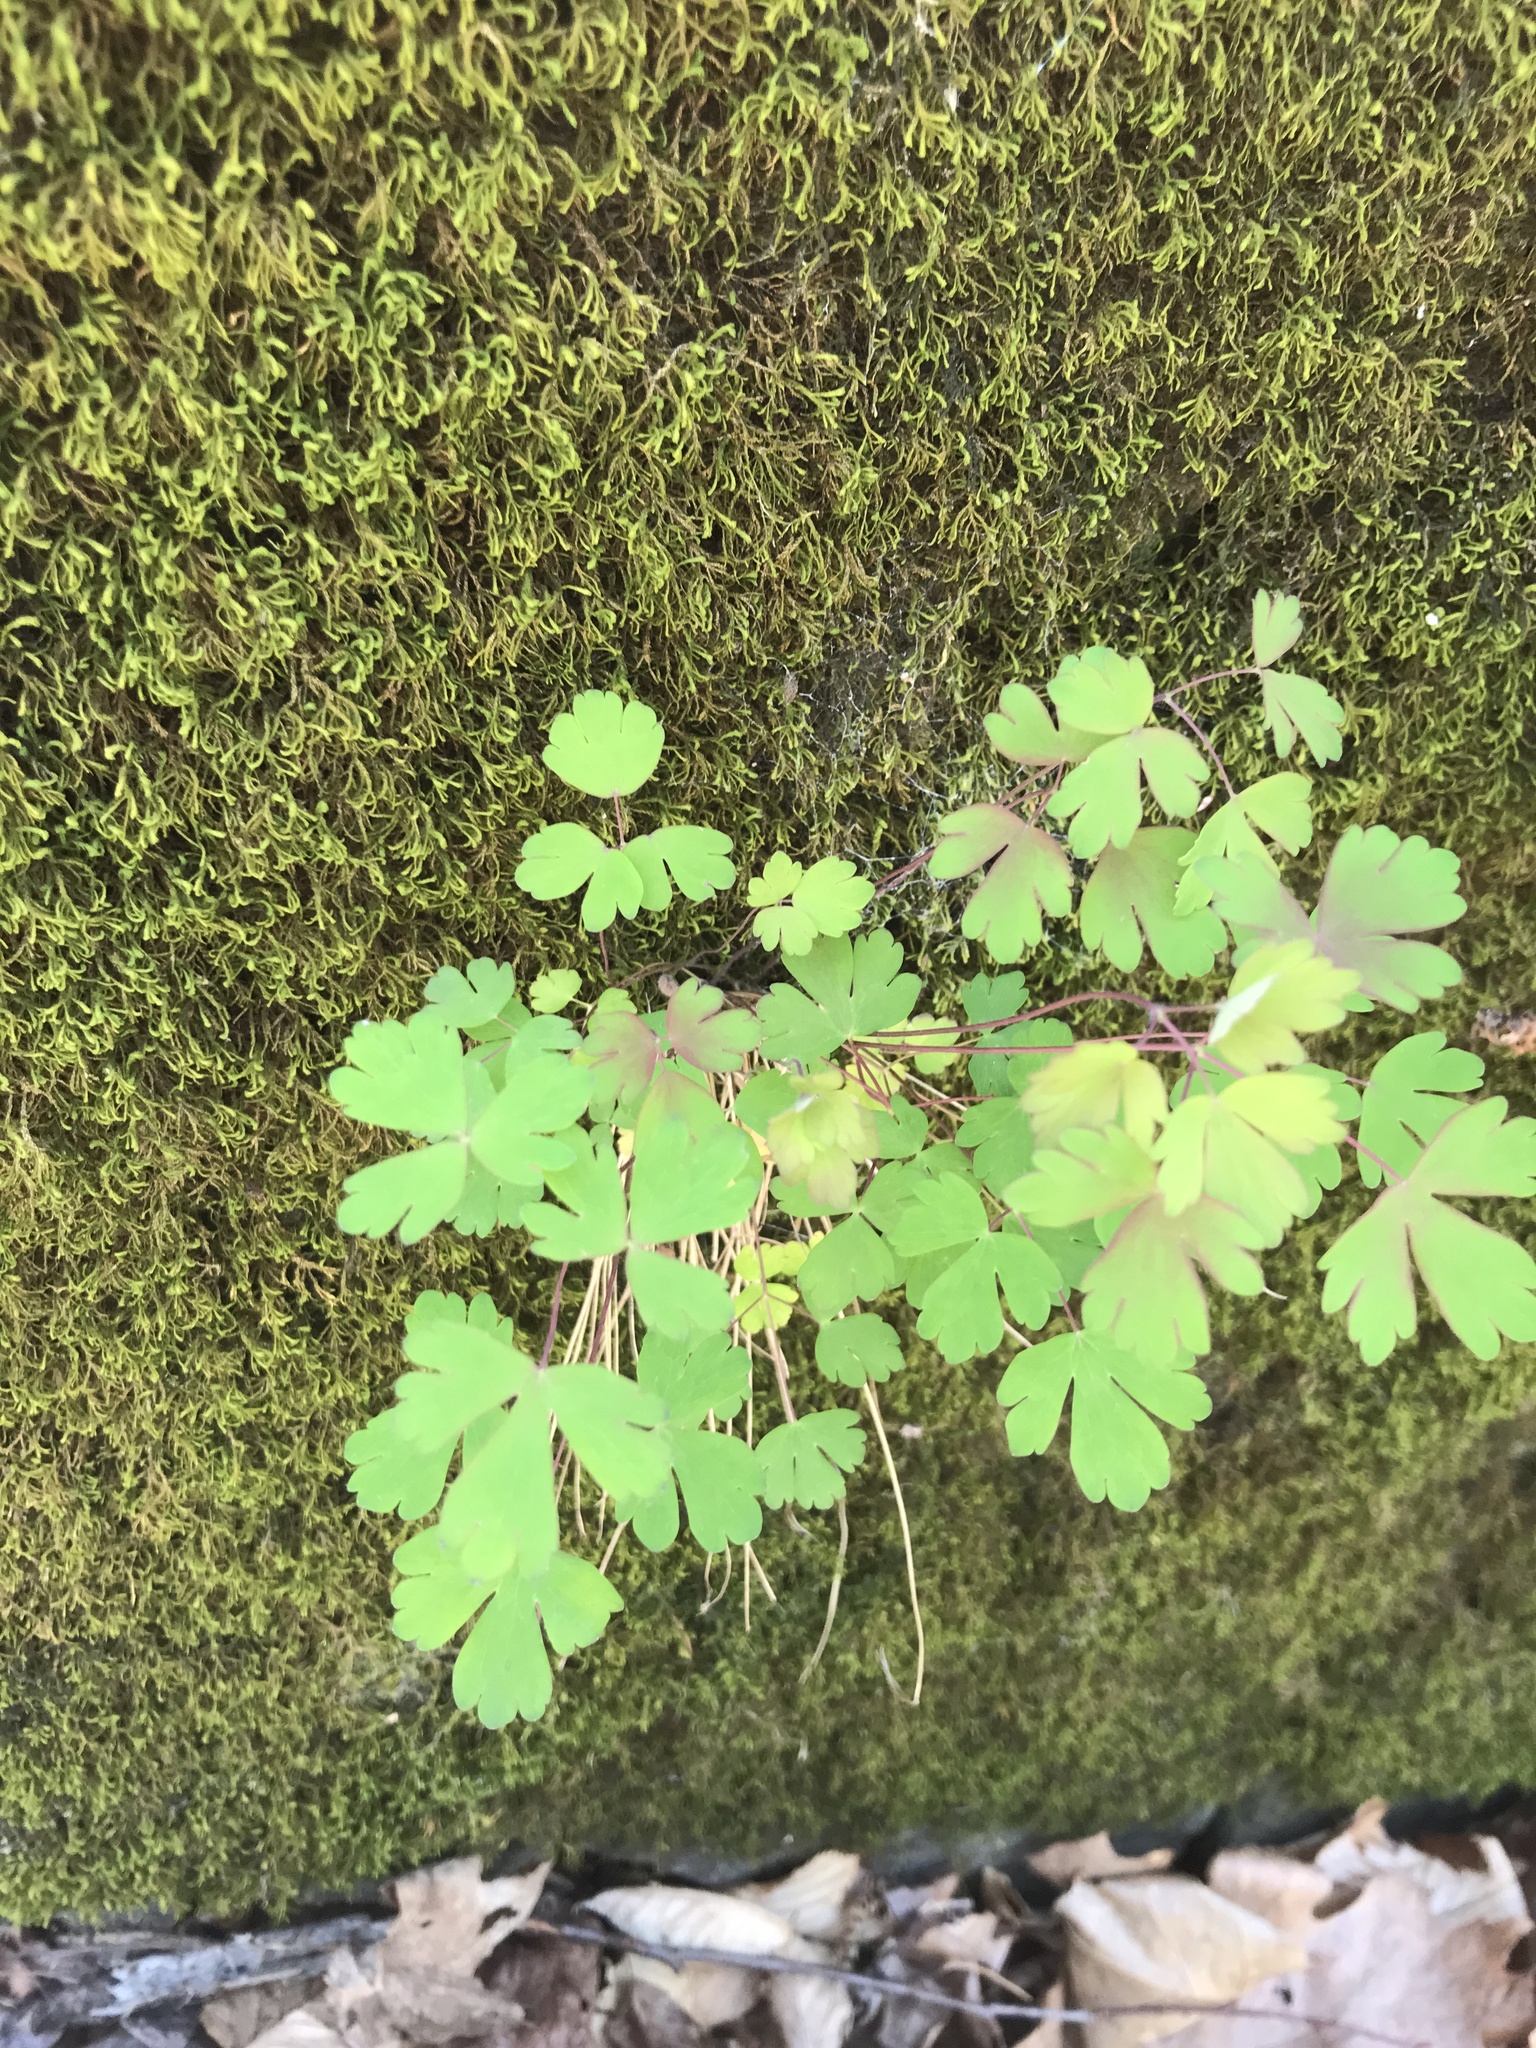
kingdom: Plantae
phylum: Tracheophyta
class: Magnoliopsida
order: Ranunculales
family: Ranunculaceae
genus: Aquilegia
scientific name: Aquilegia canadensis
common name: American columbine
